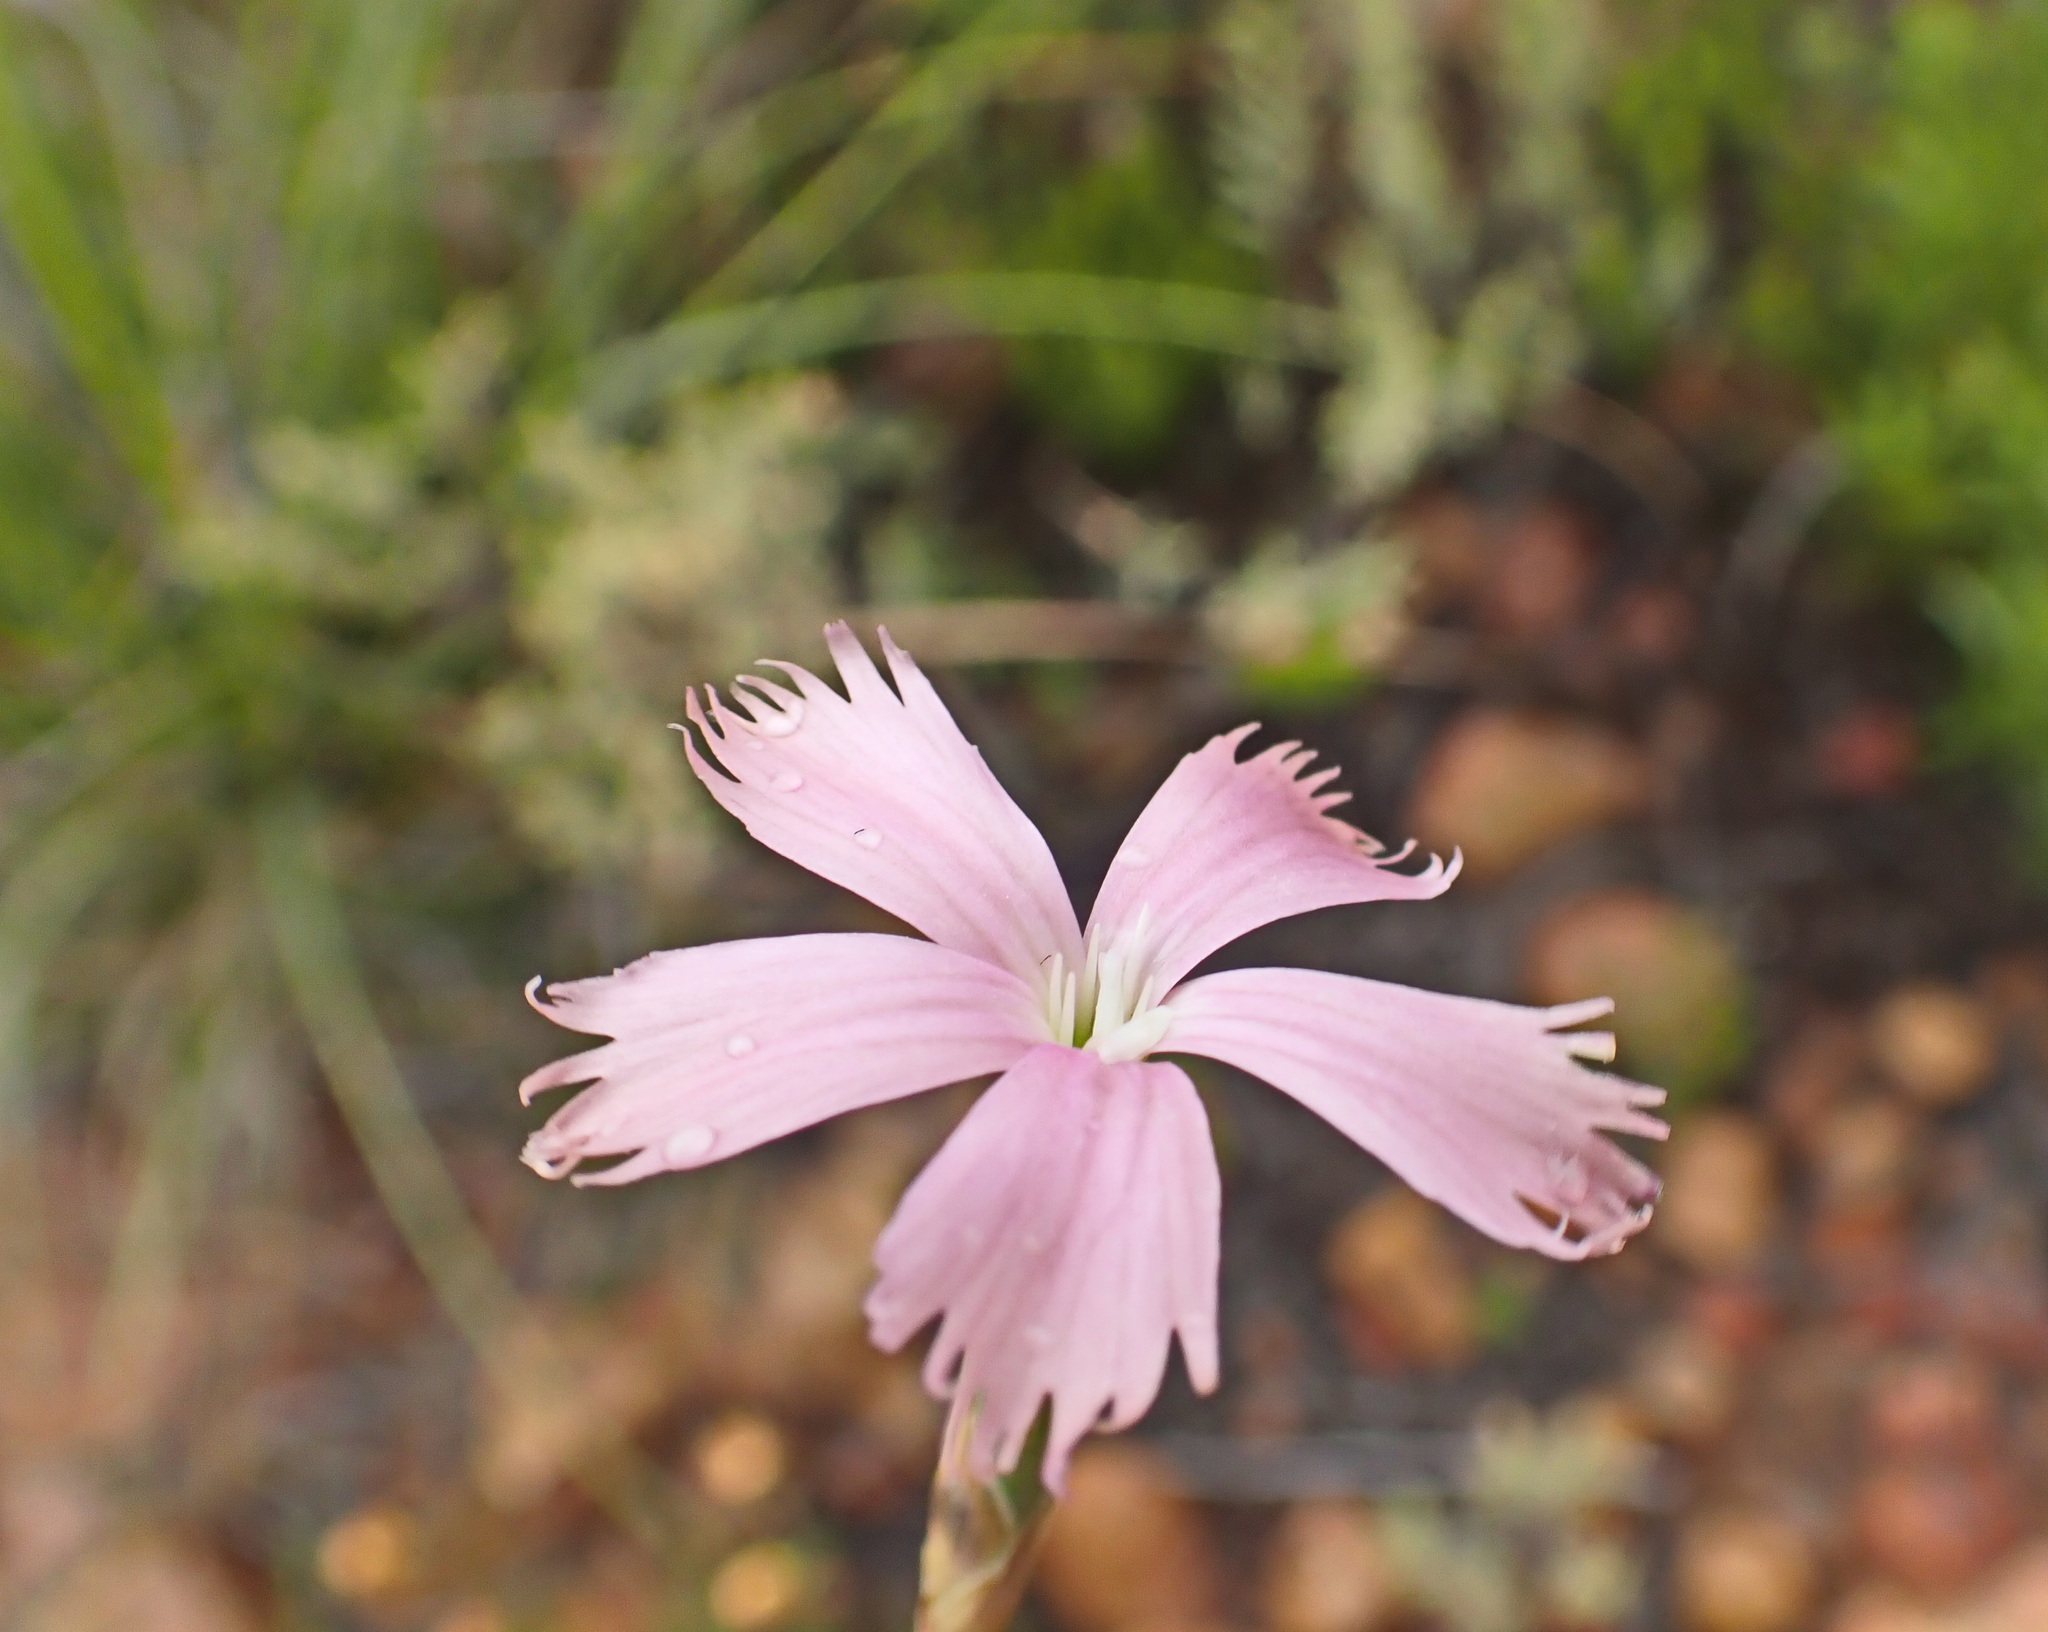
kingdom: Plantae
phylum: Tracheophyta
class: Magnoliopsida
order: Caryophyllales
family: Caryophyllaceae
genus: Dianthus
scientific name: Dianthus thunbergii
